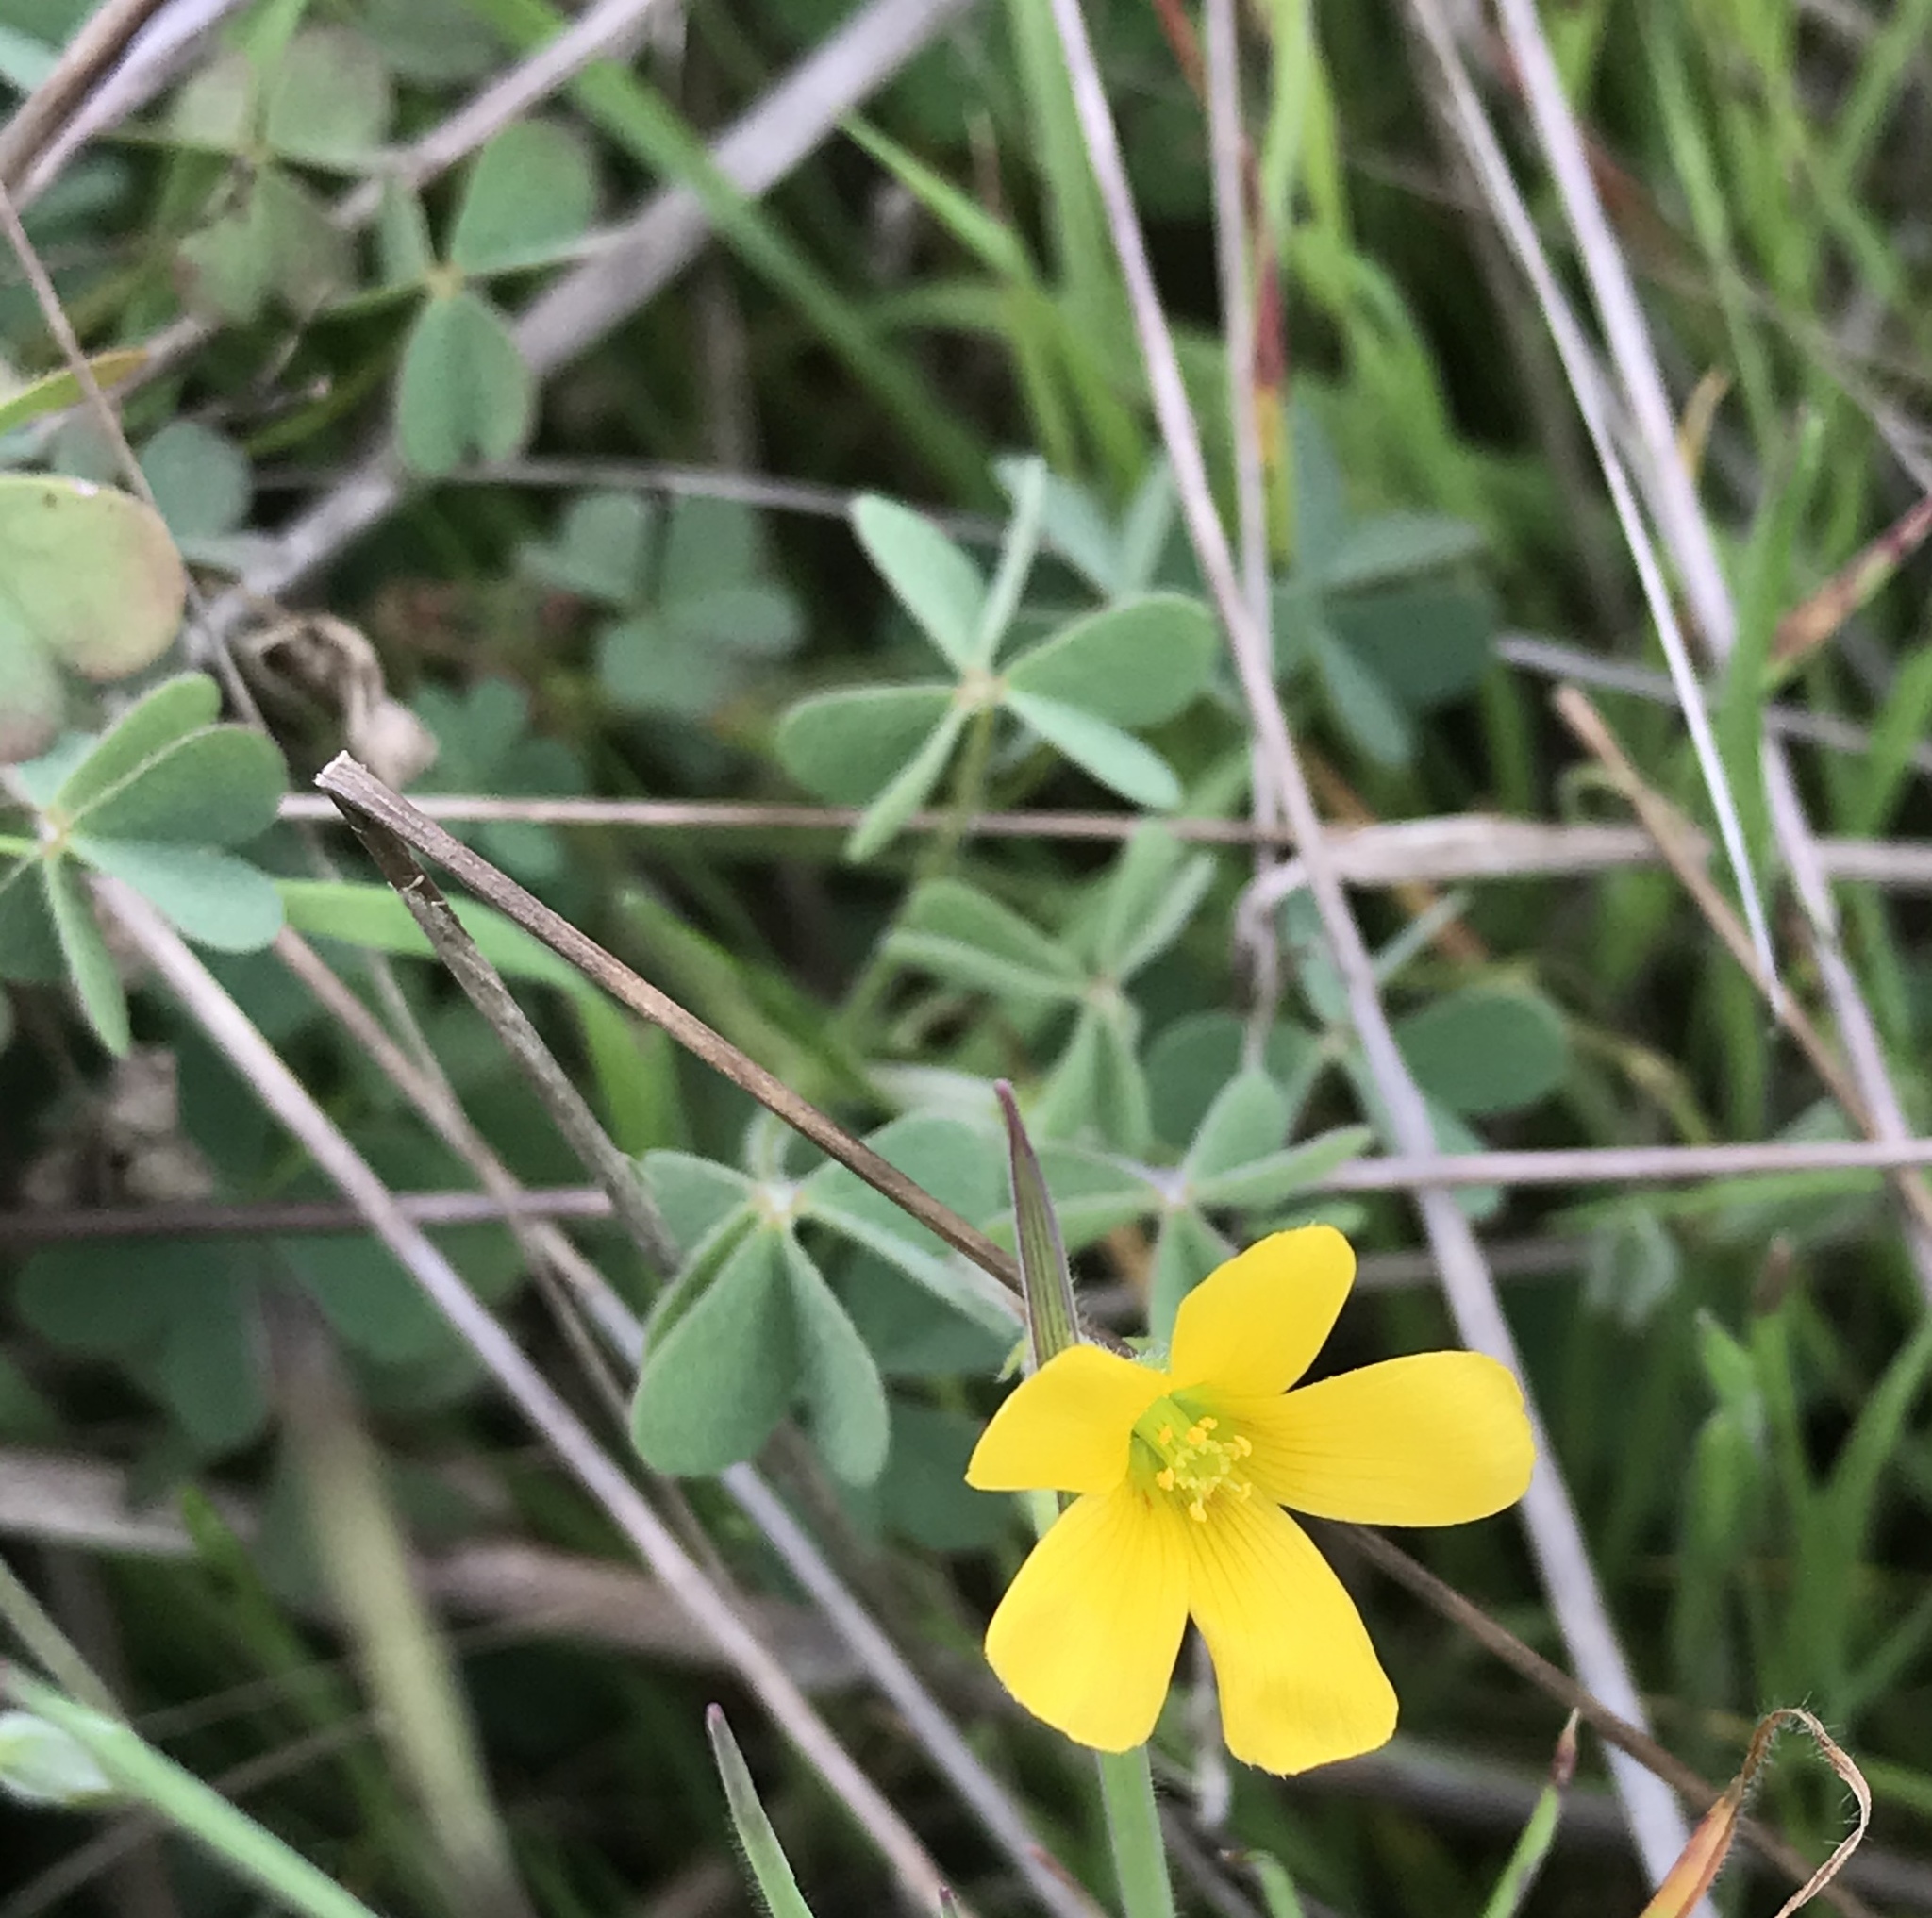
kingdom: Plantae
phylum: Tracheophyta
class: Magnoliopsida
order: Oxalidales
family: Oxalidaceae
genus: Oxalis
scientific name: Oxalis corniculata
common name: Procumbent yellow-sorrel
